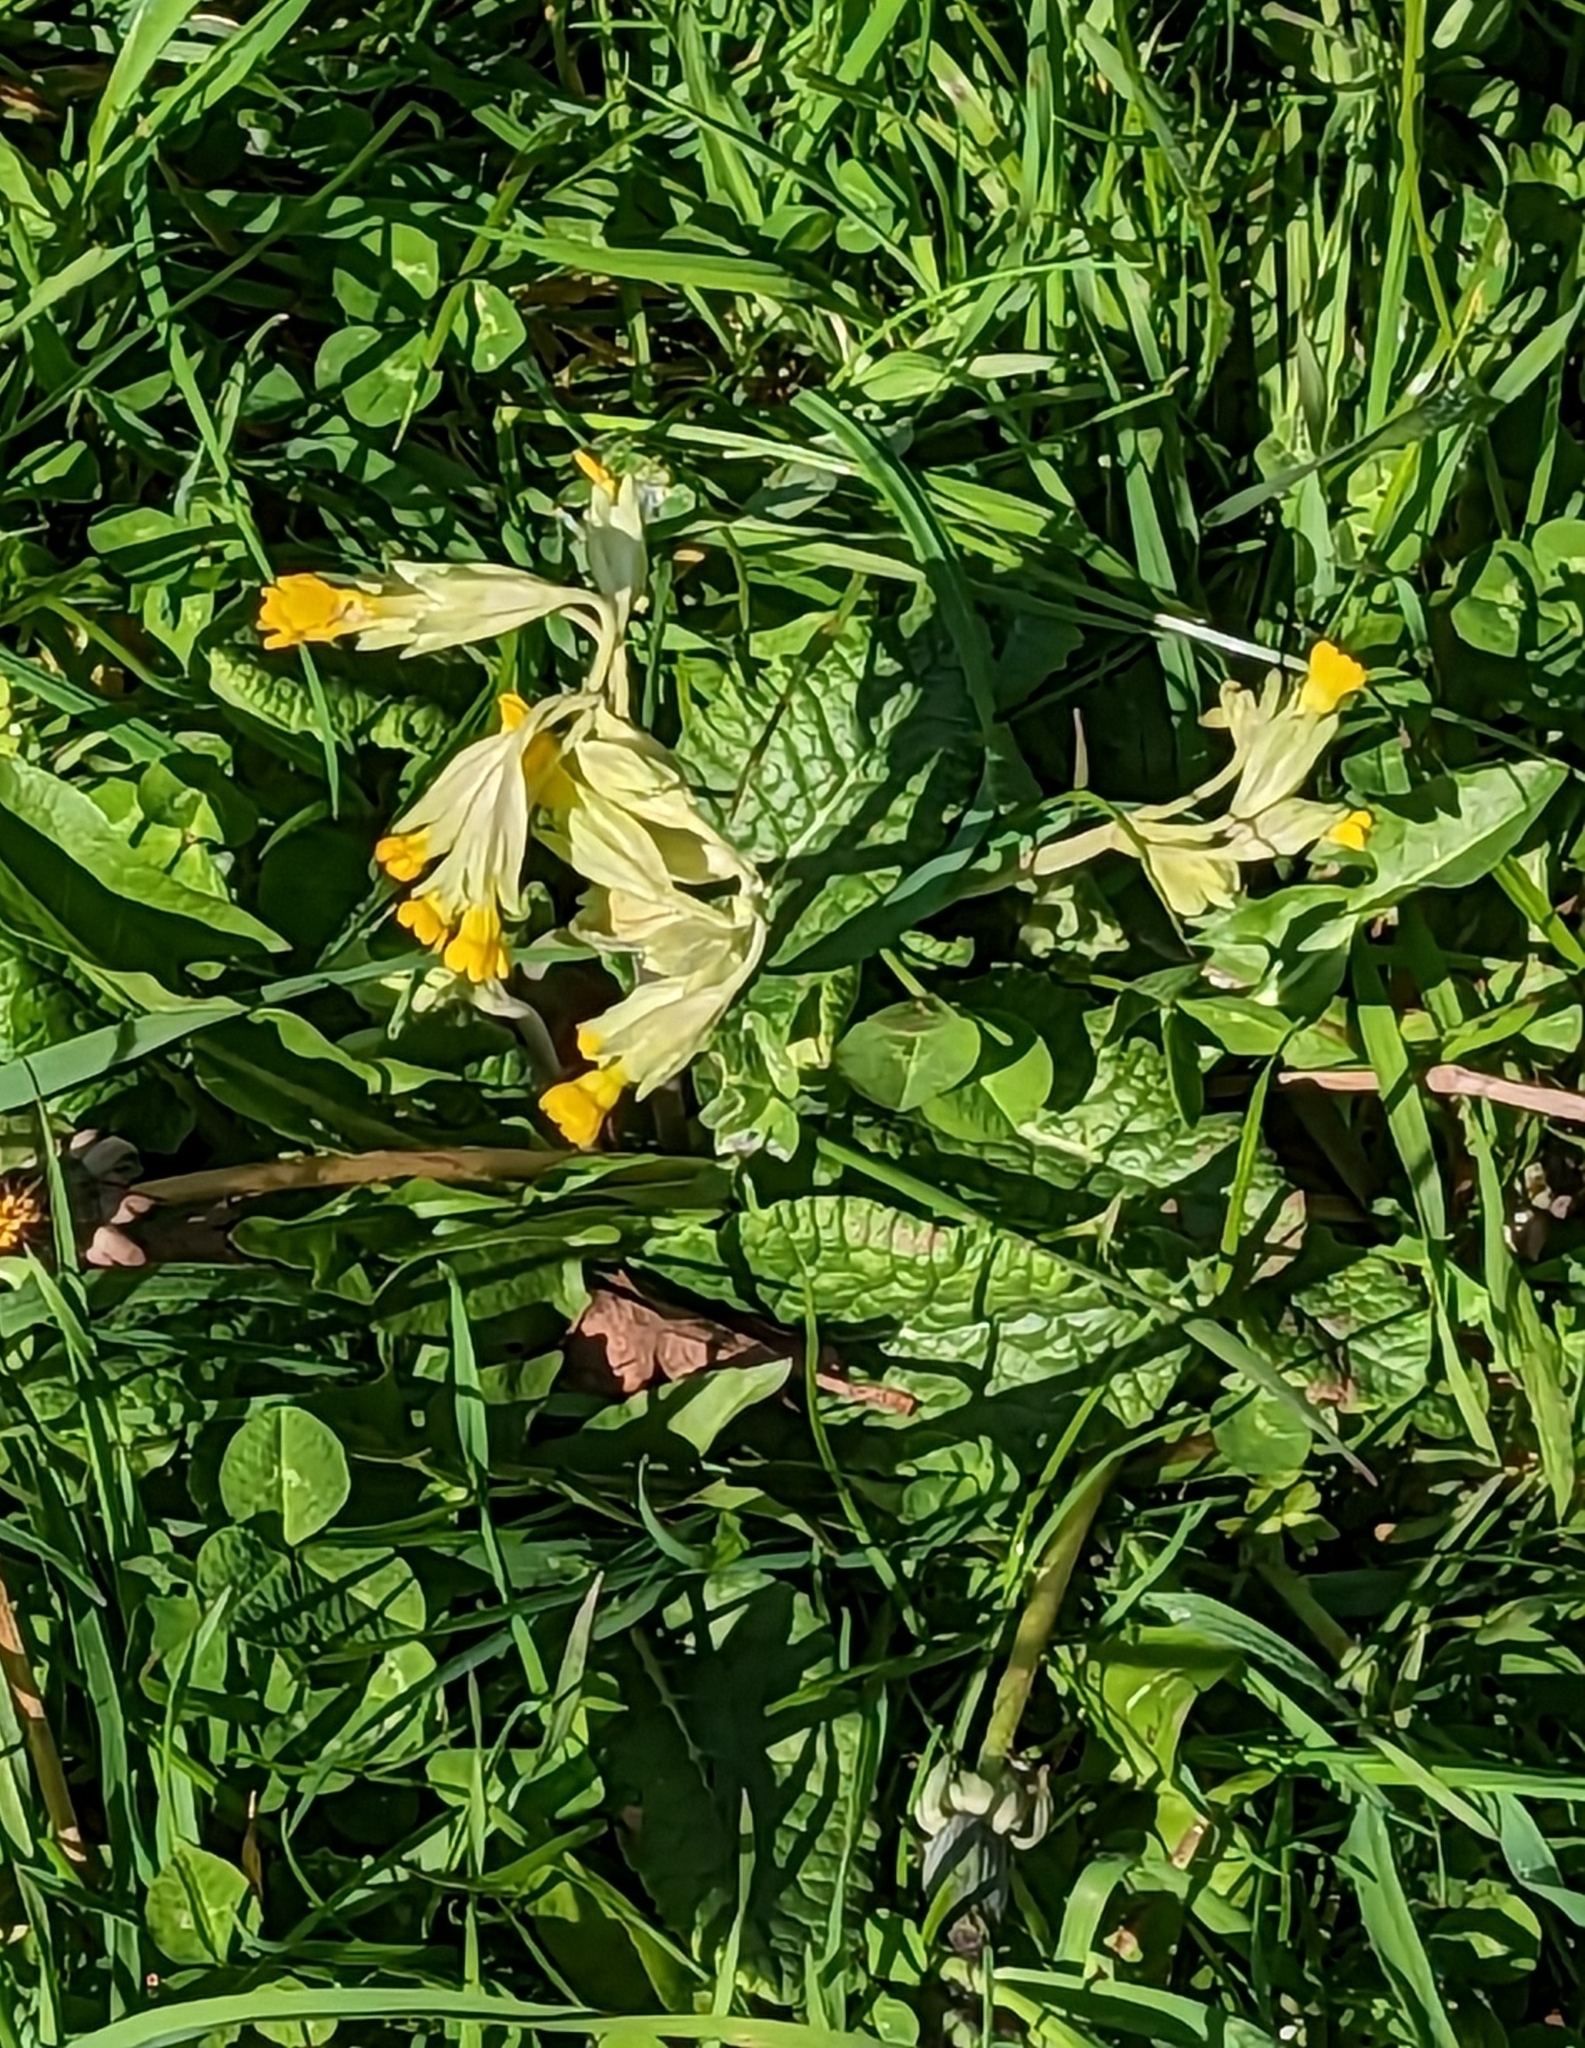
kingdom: Plantae
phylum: Tracheophyta
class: Magnoliopsida
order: Ericales
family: Primulaceae
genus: Primula
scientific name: Primula veris
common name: Cowslip
